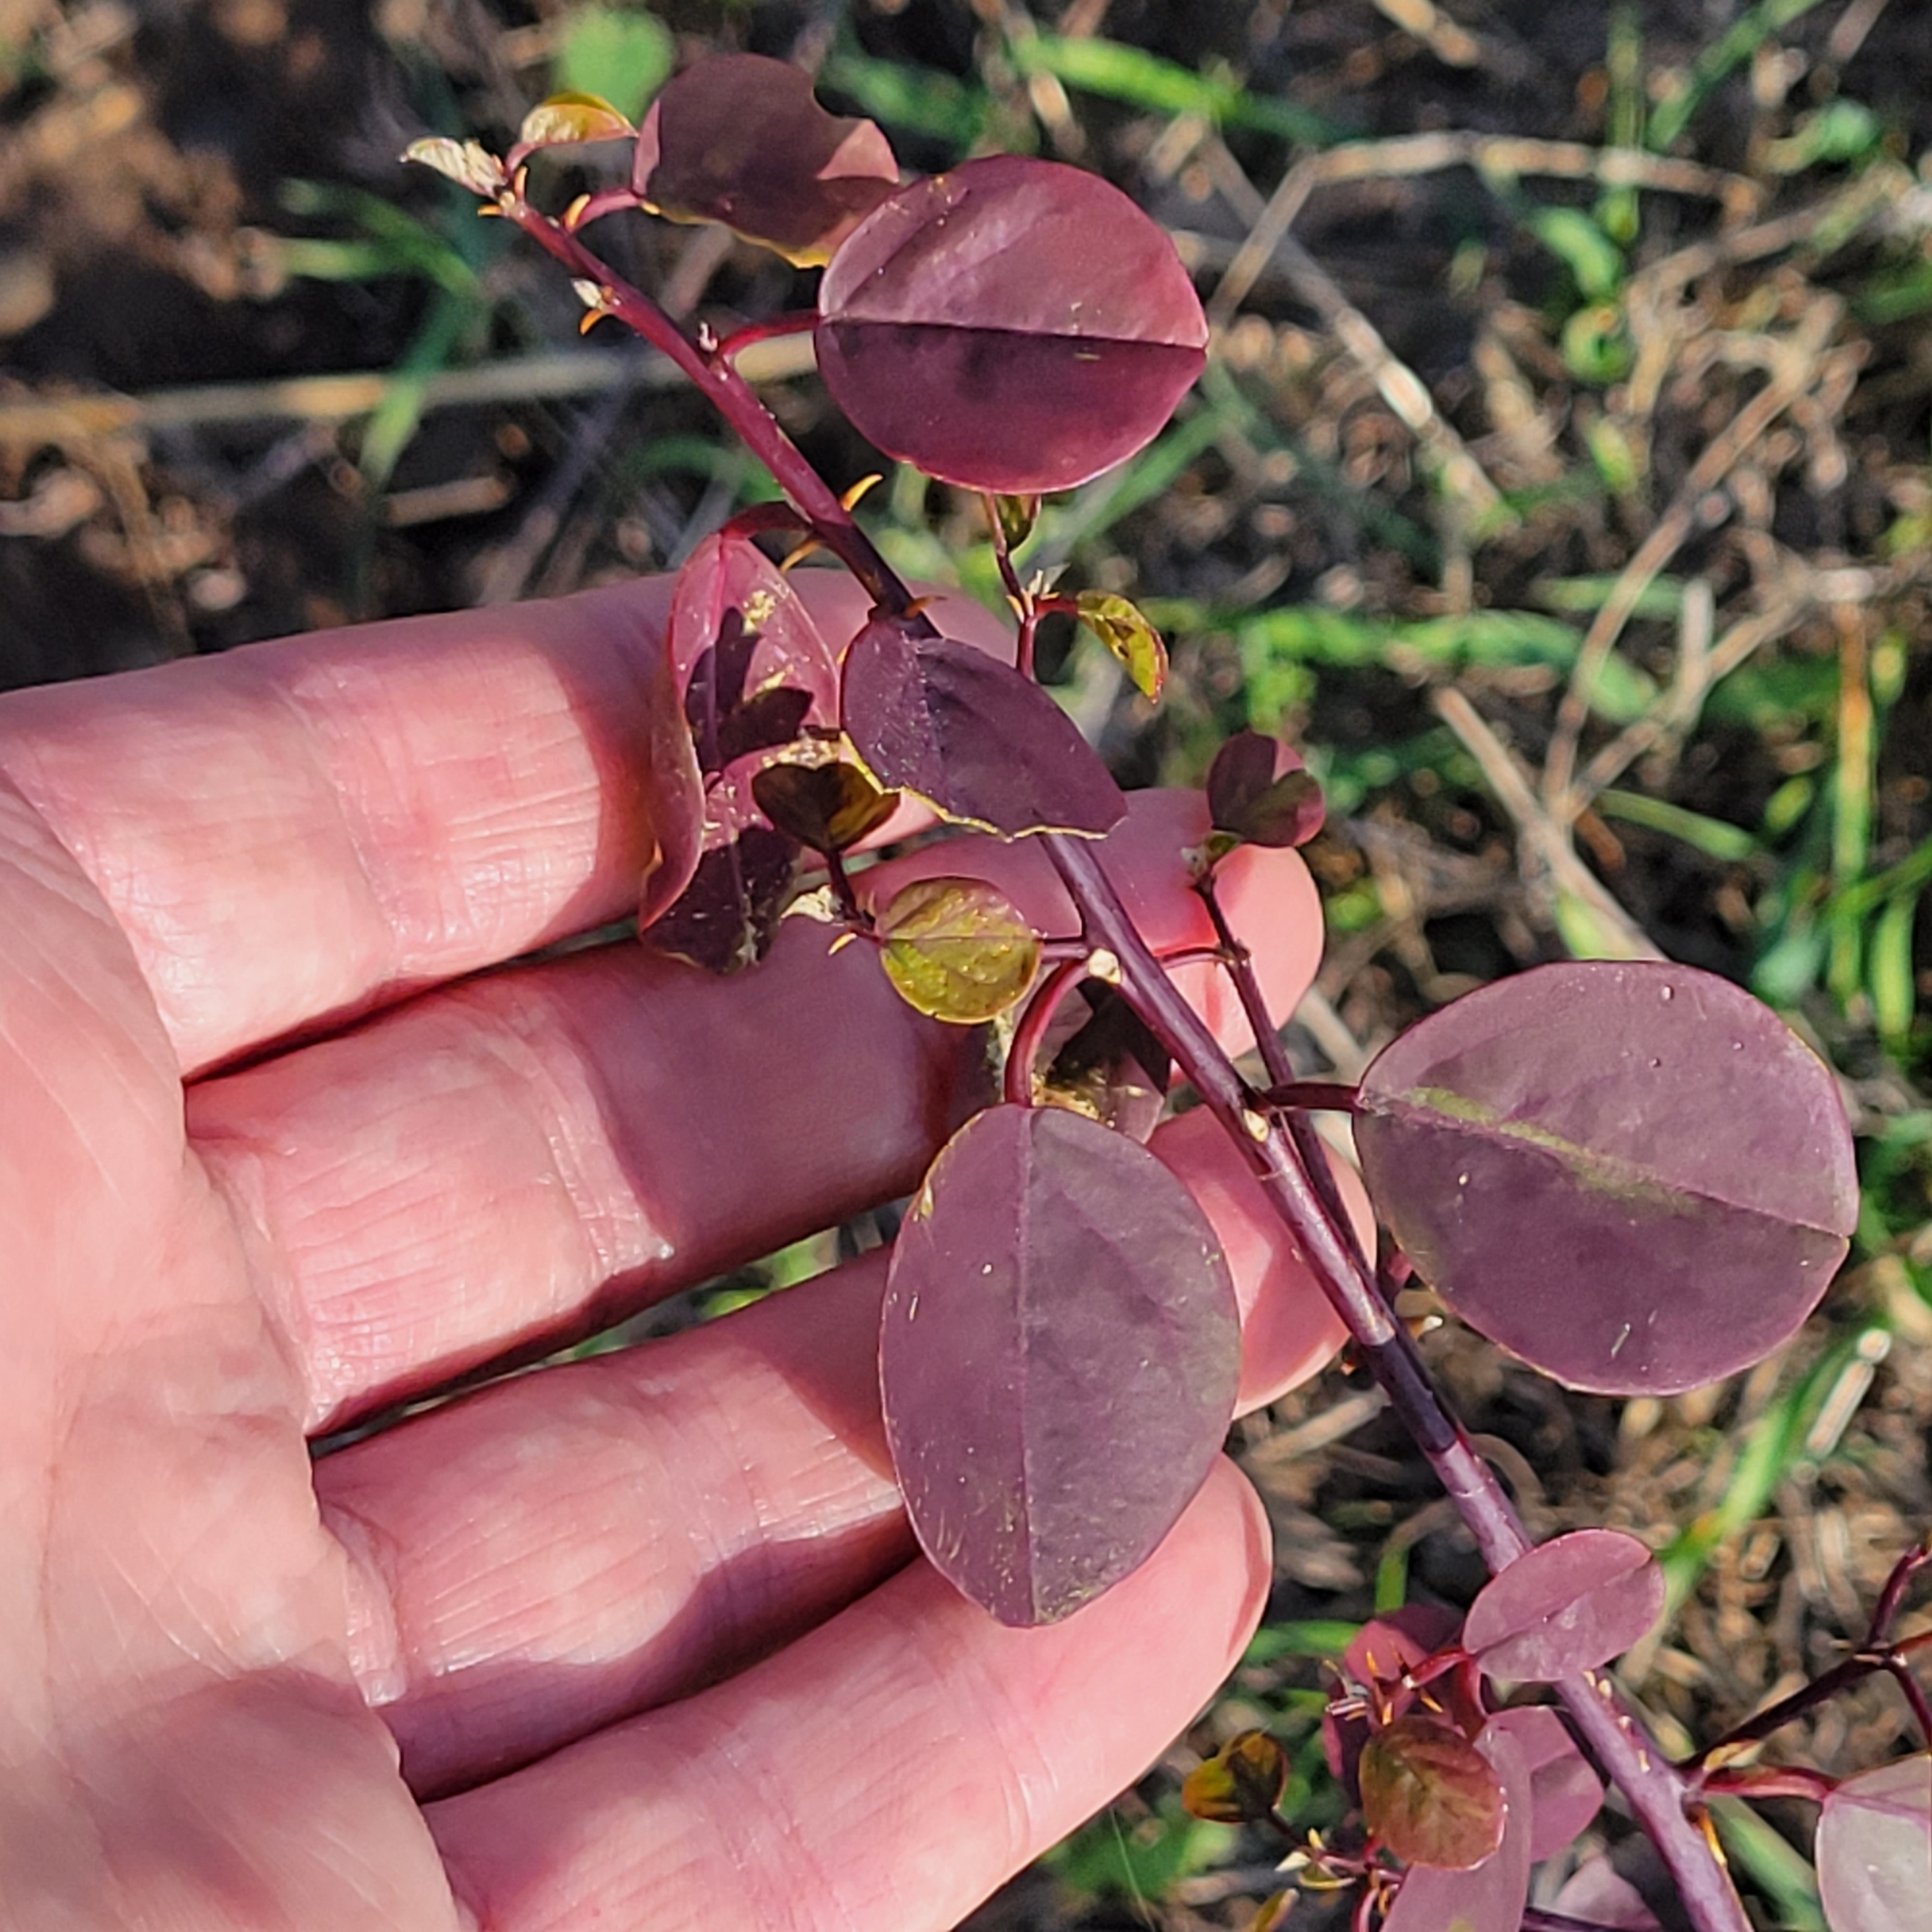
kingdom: Plantae
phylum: Tracheophyta
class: Magnoliopsida
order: Brassicales
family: Capparaceae
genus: Capparis
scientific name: Capparis spinosa
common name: Caper
